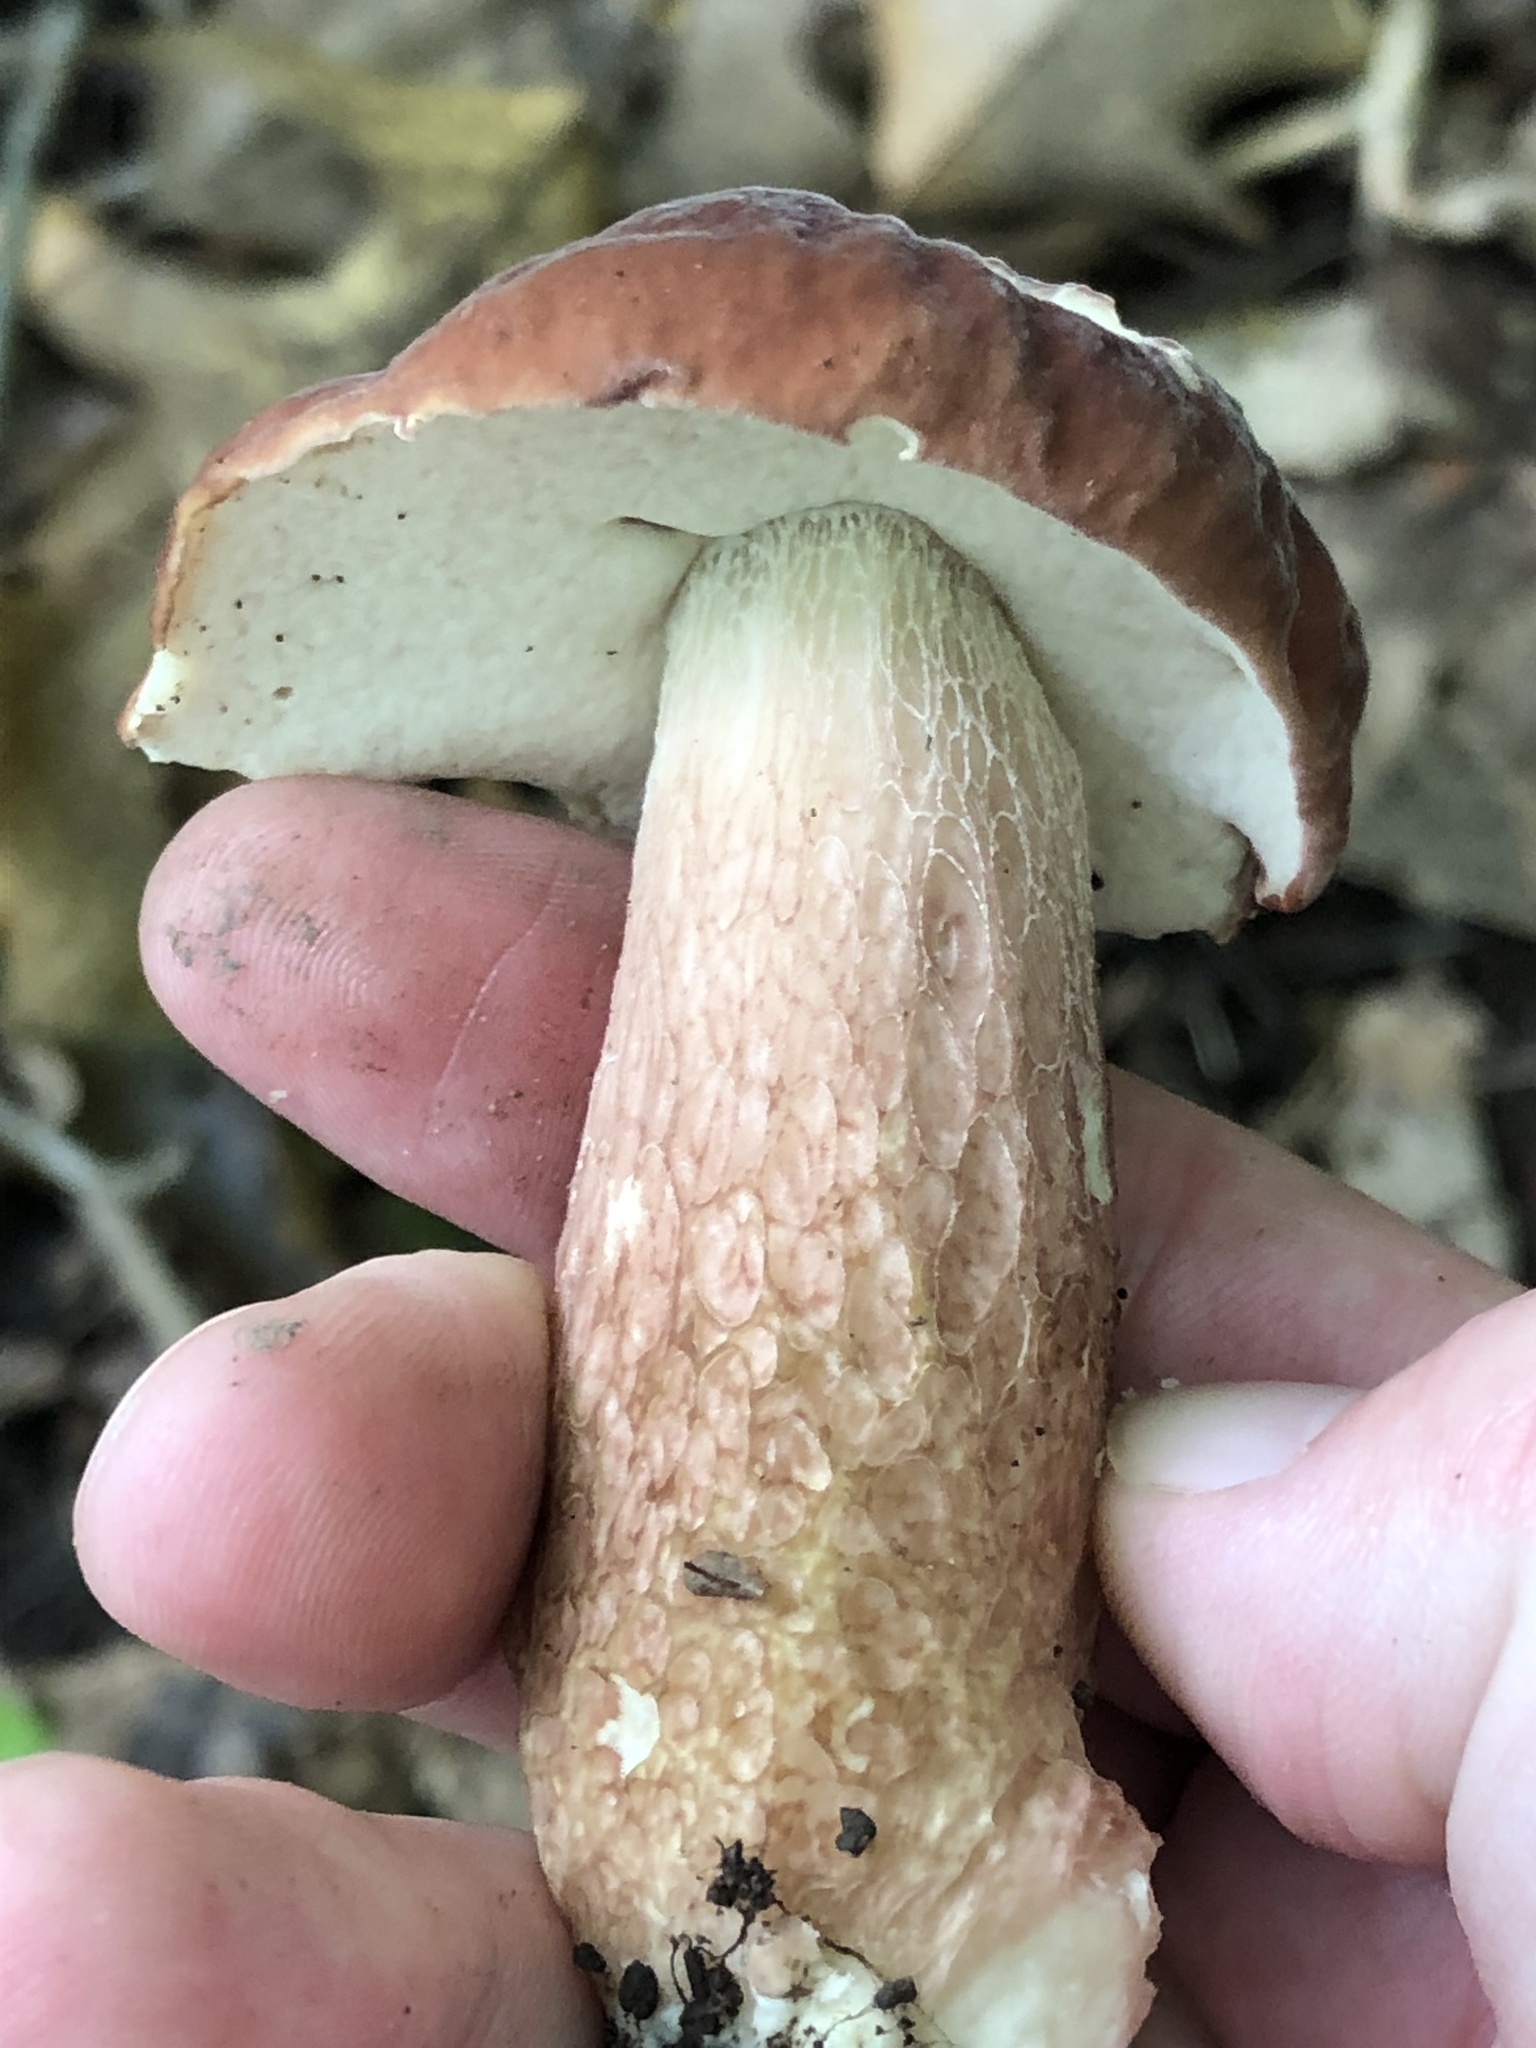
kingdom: Fungi
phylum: Basidiomycota
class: Agaricomycetes
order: Boletales
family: Boletaceae
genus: Xanthoconium
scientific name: Xanthoconium separans
